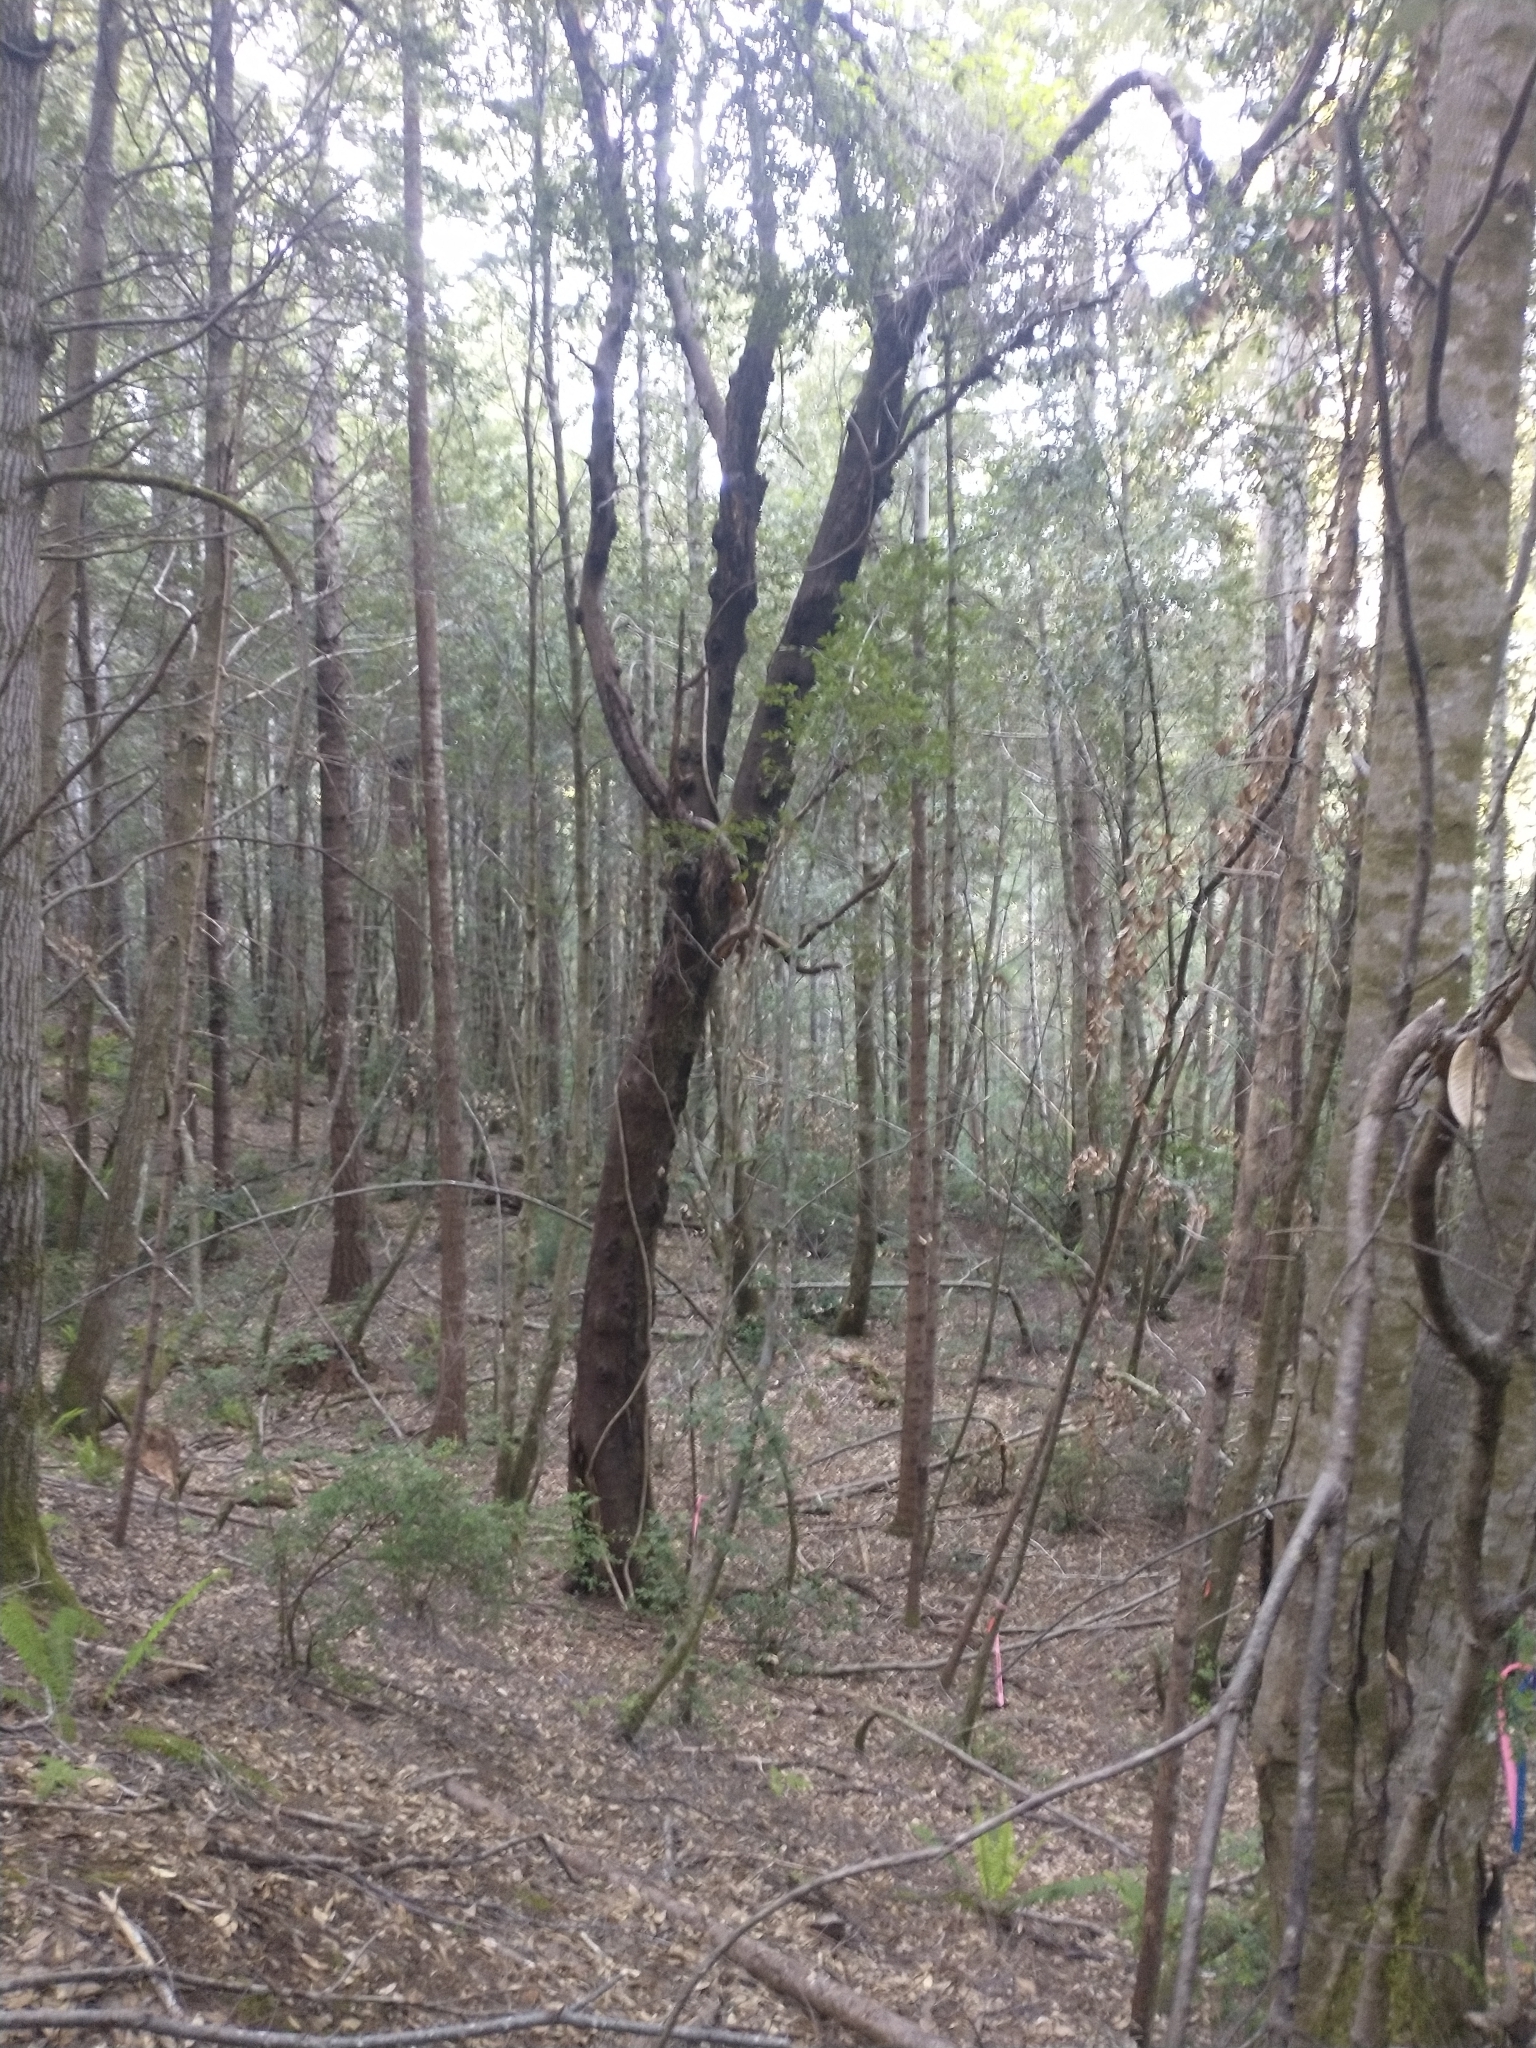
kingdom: Plantae
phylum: Tracheophyta
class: Magnoliopsida
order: Ericales
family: Ericaceae
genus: Arbutus
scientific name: Arbutus menziesii
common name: Pacific madrone
